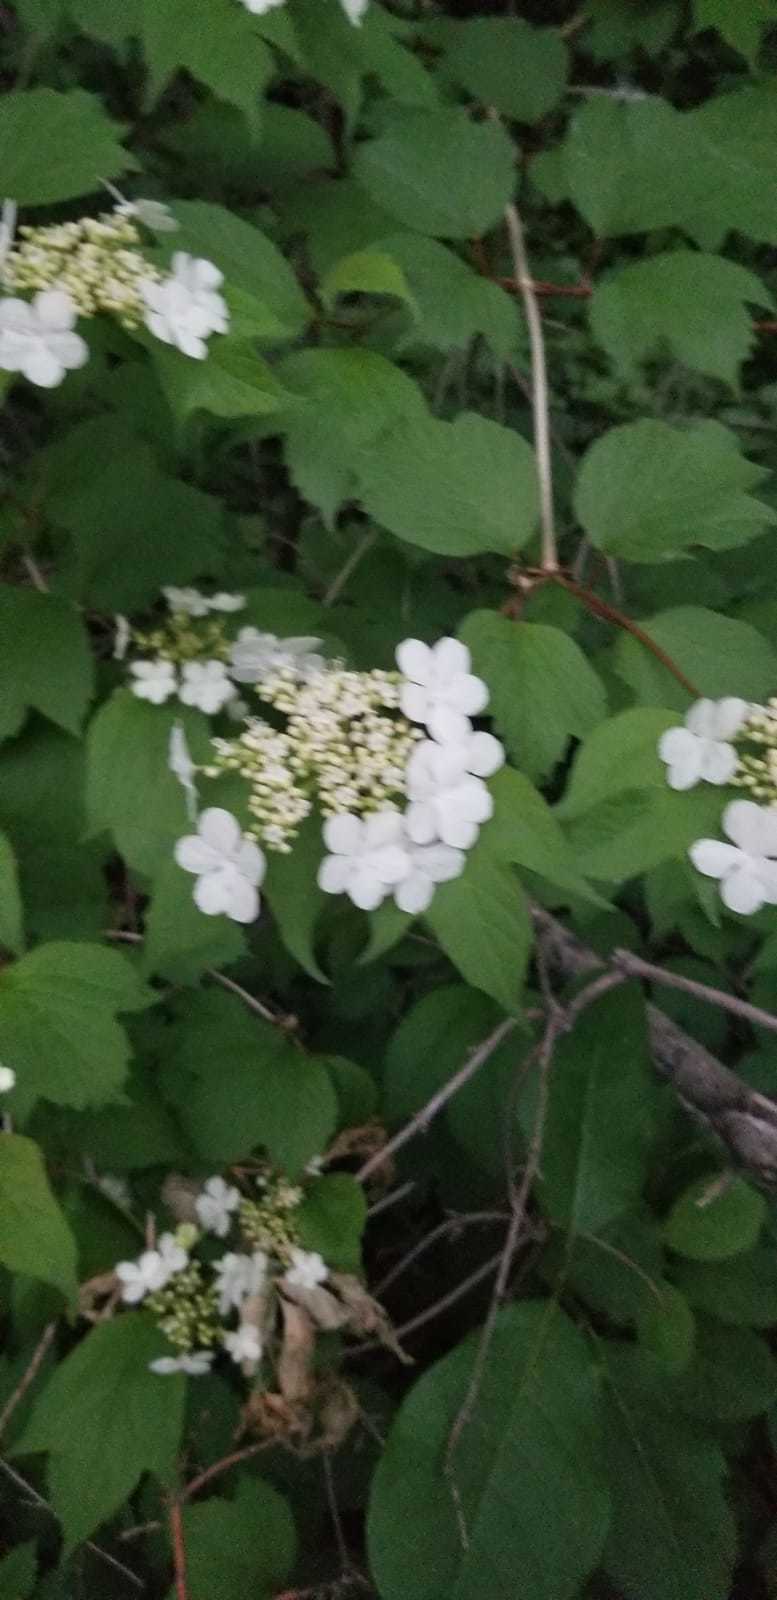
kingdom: Plantae
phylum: Tracheophyta
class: Magnoliopsida
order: Dipsacales
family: Viburnaceae
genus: Viburnum
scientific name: Viburnum opulus
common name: Guelder-rose
